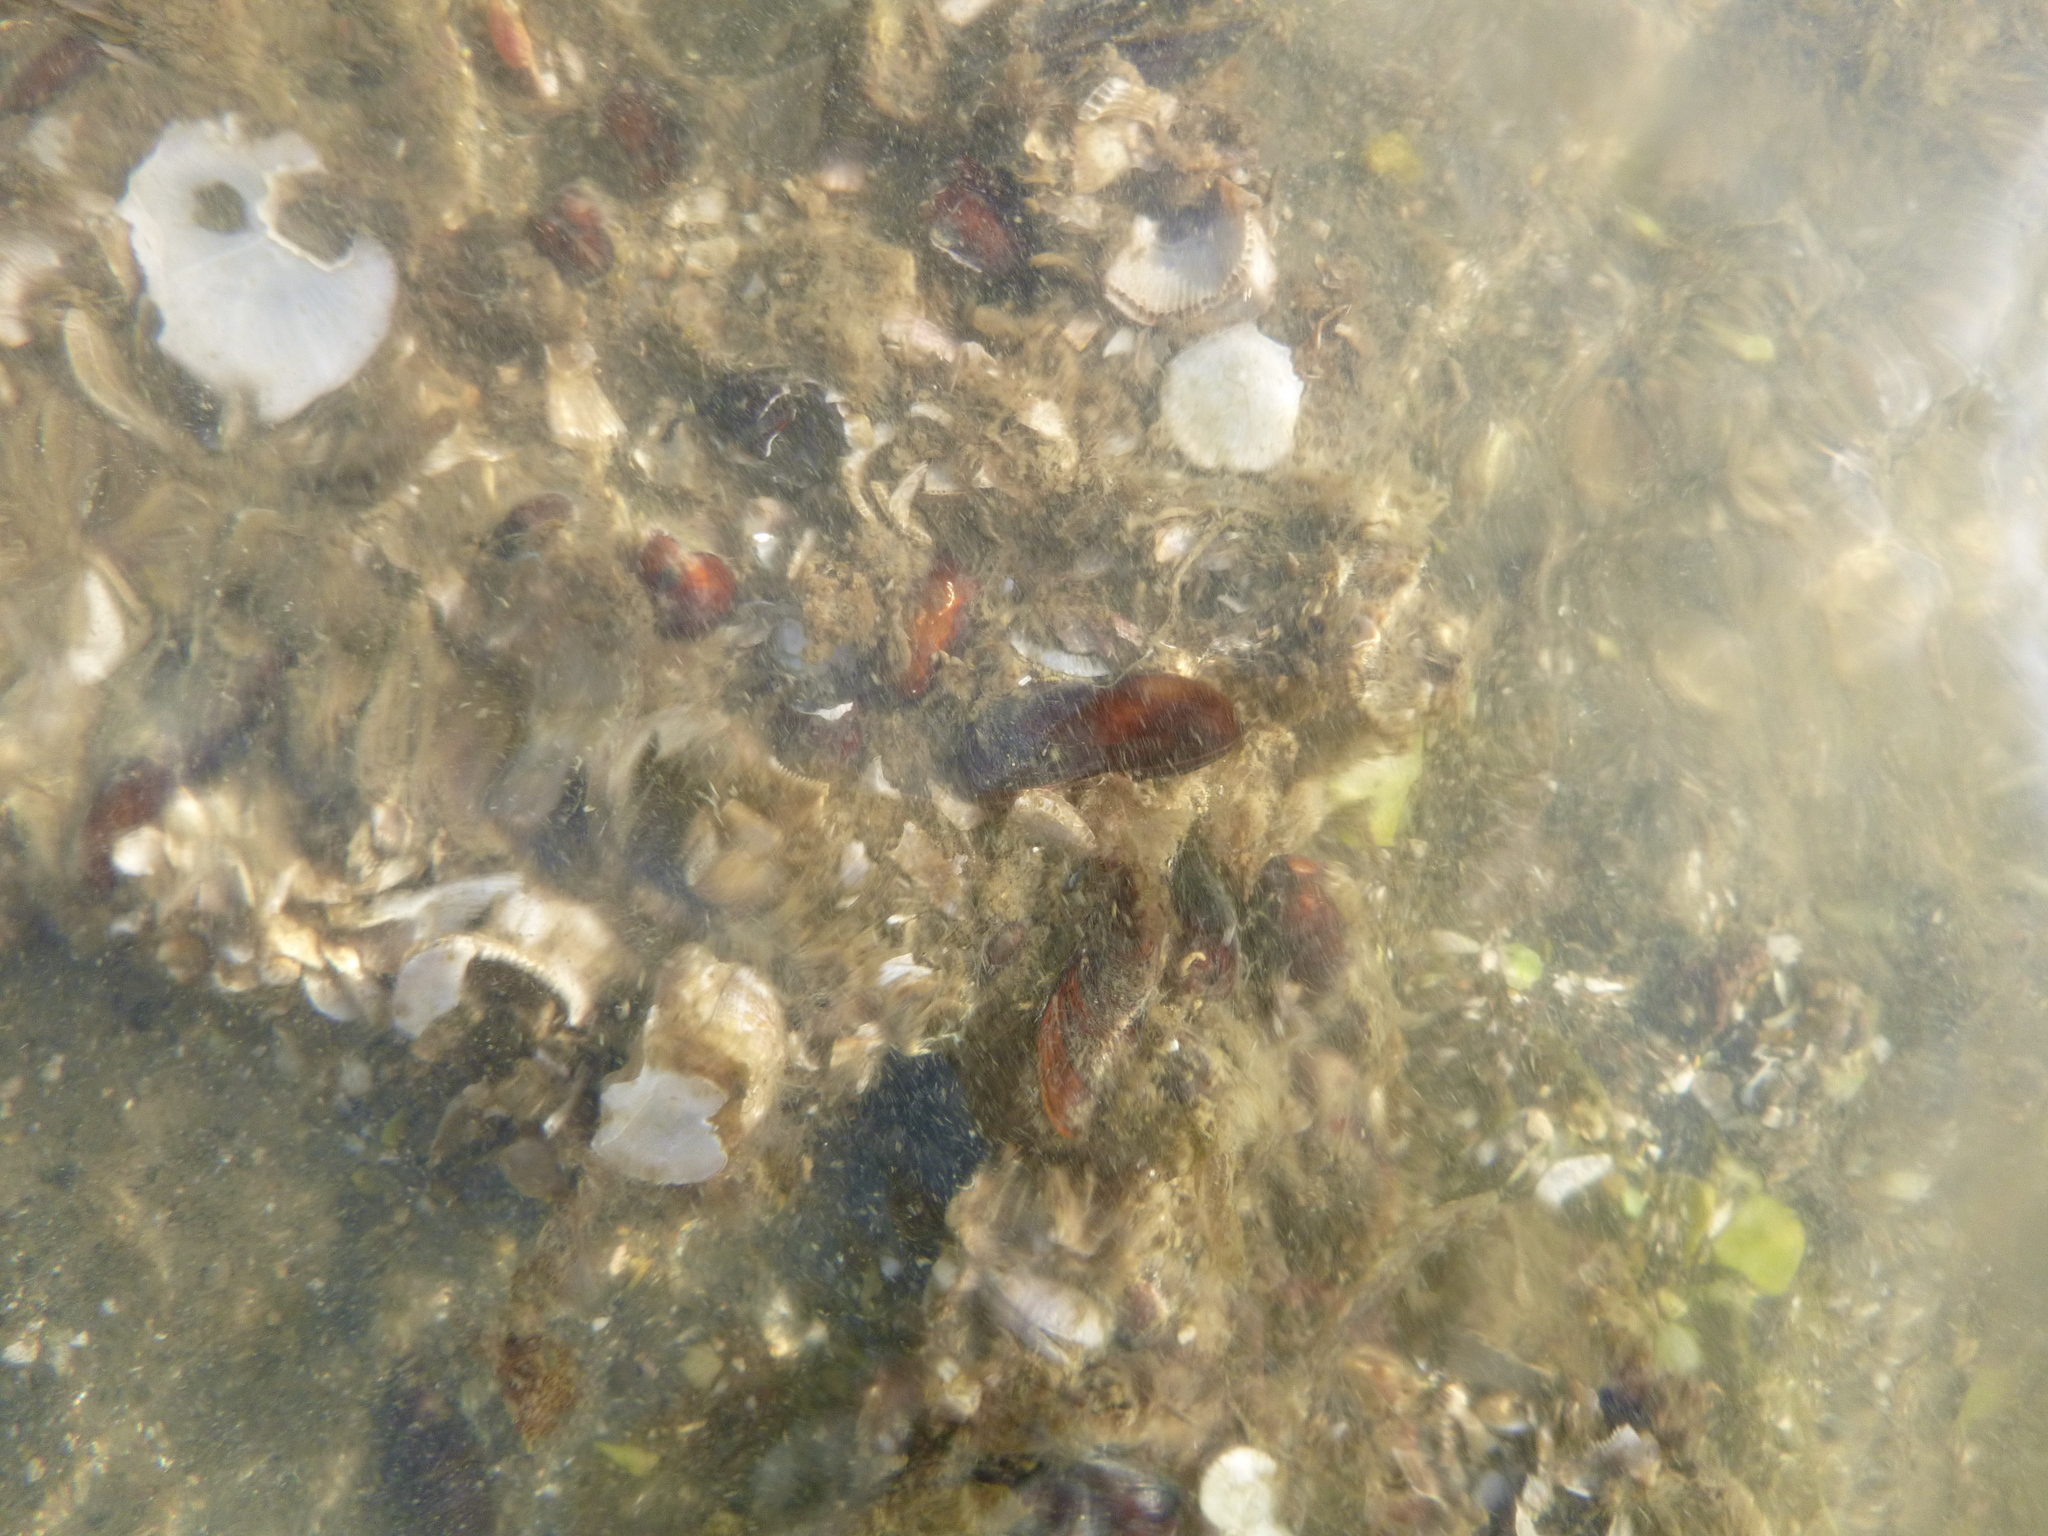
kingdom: Animalia
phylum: Mollusca
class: Bivalvia
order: Mytilida
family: Mytilidae
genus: Xenostrobus
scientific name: Xenostrobus securis
